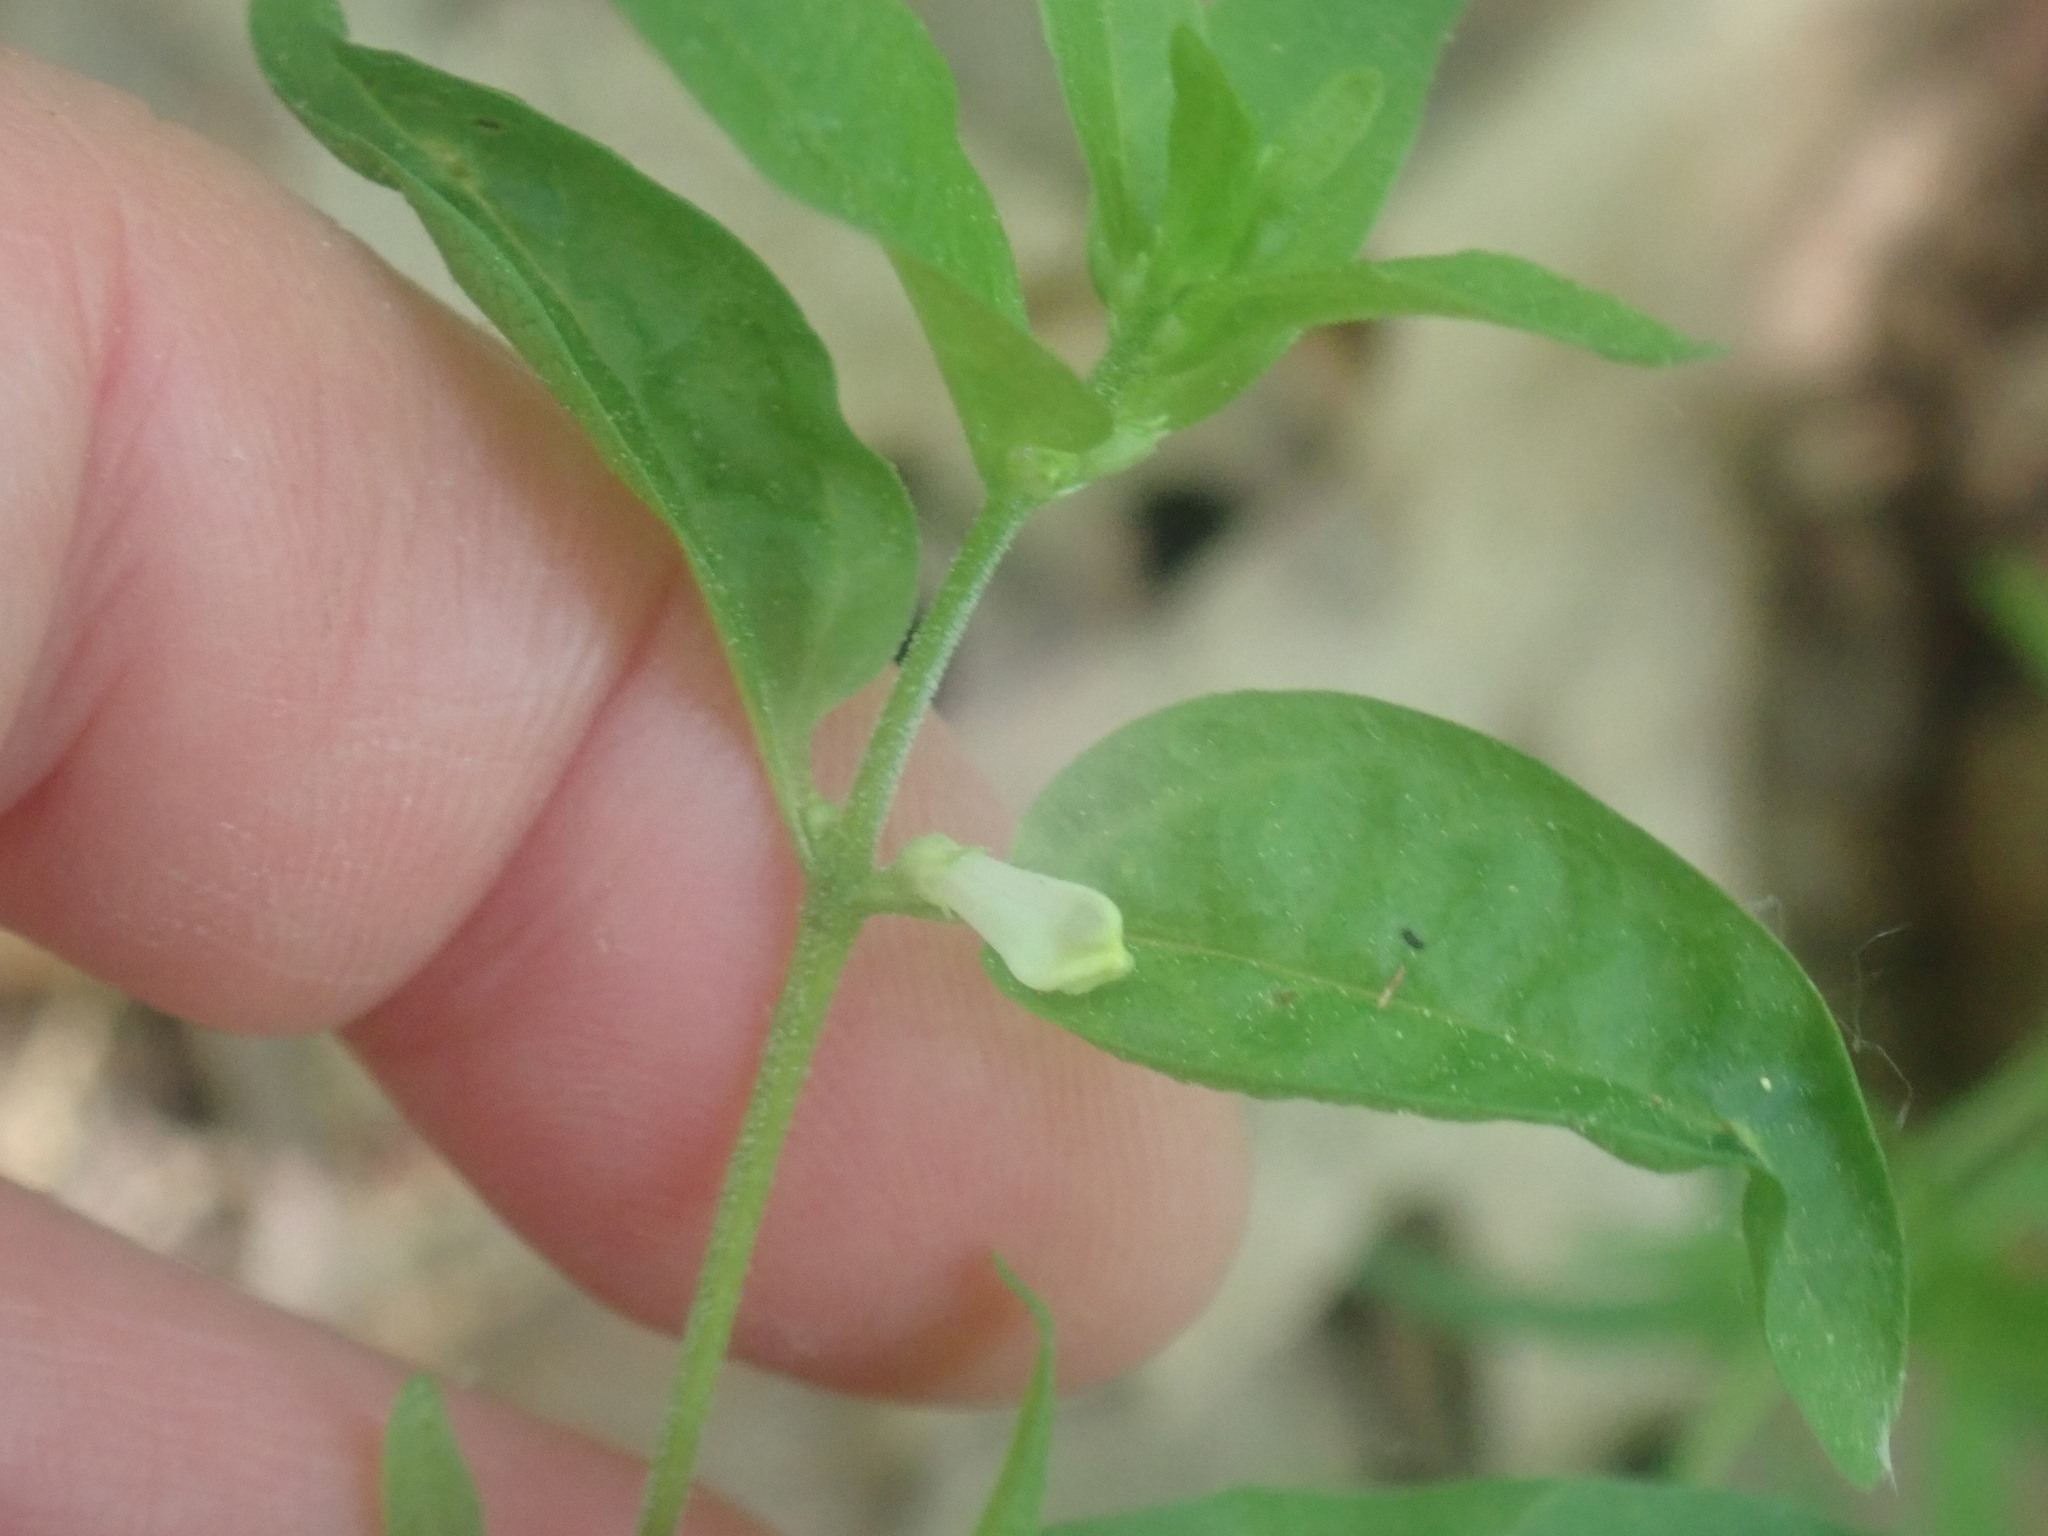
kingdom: Plantae
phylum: Tracheophyta
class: Magnoliopsida
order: Lamiales
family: Orobanchaceae
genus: Melampyrum
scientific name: Melampyrum lineare
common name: American cow-wheat
